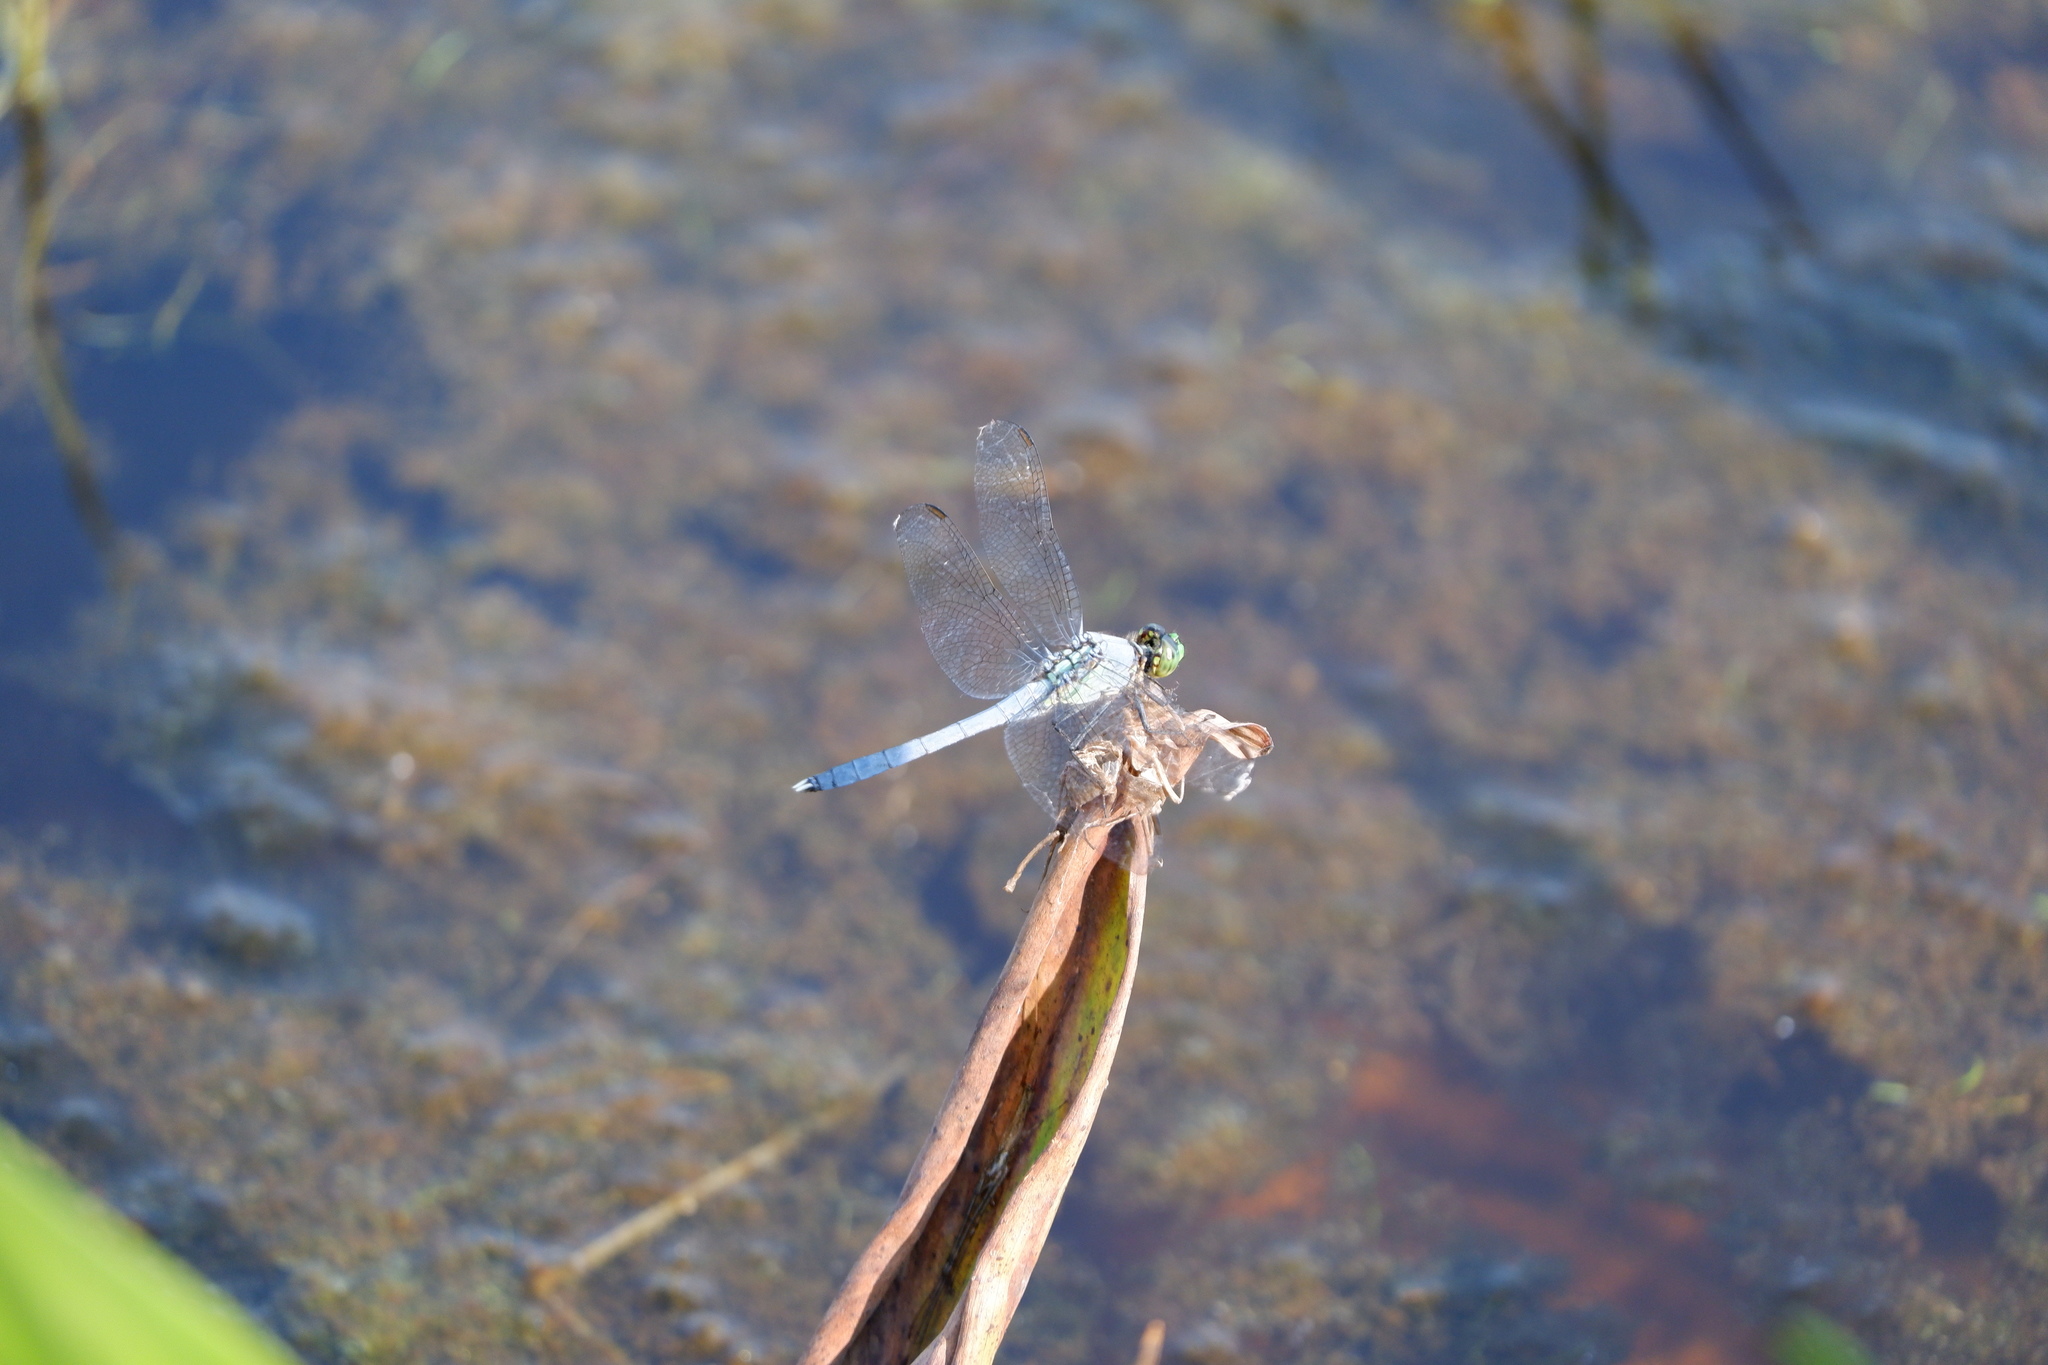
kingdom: Animalia
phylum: Arthropoda
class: Insecta
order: Odonata
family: Libellulidae
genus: Erythemis
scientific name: Erythemis simplicicollis
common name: Eastern pondhawk
